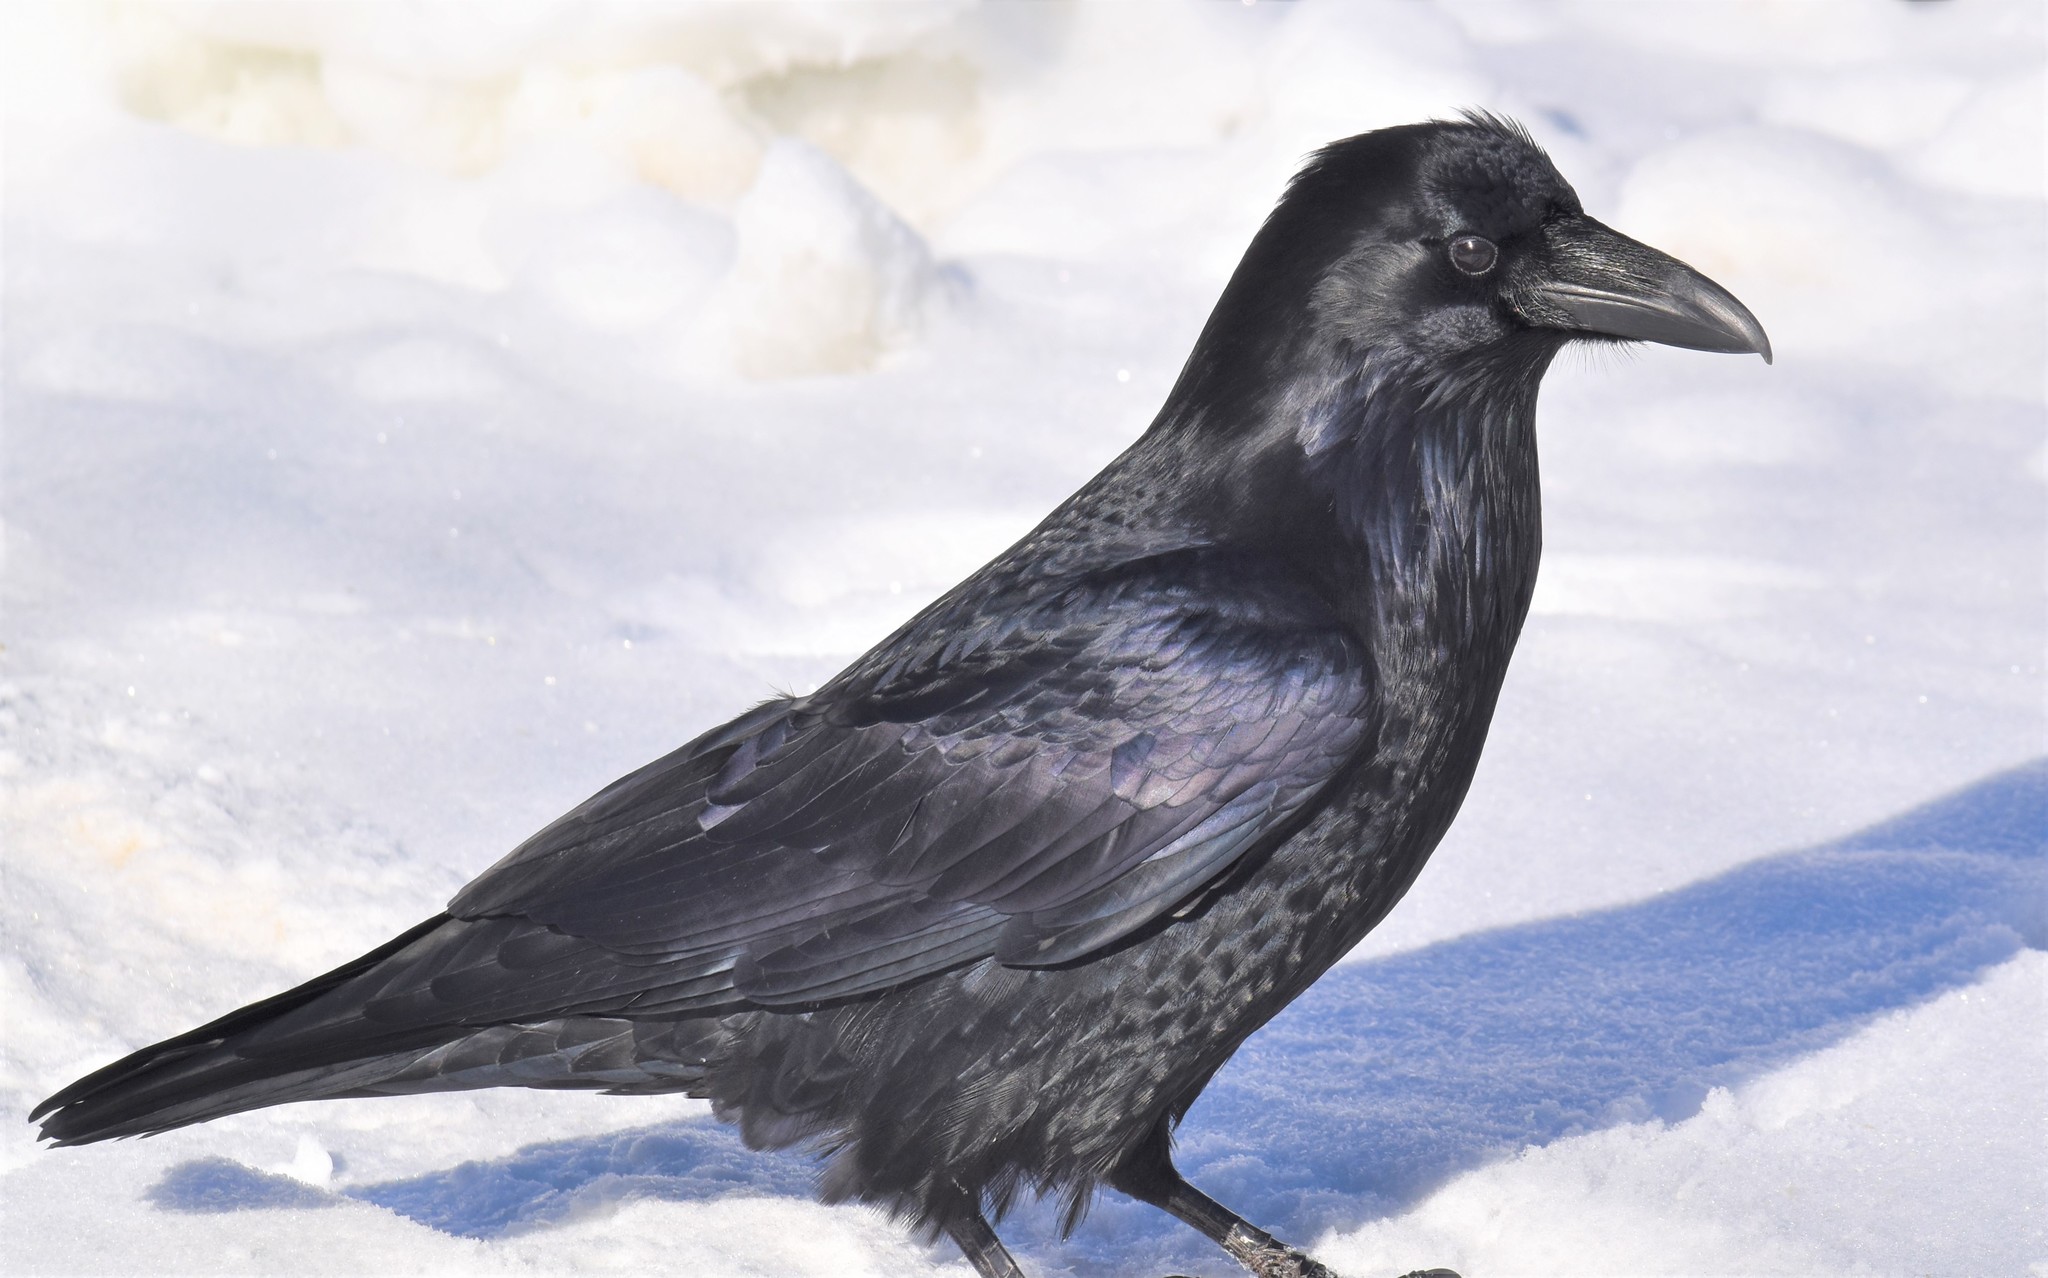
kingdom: Animalia
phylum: Chordata
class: Aves
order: Passeriformes
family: Corvidae
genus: Corvus
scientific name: Corvus corax
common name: Common raven
